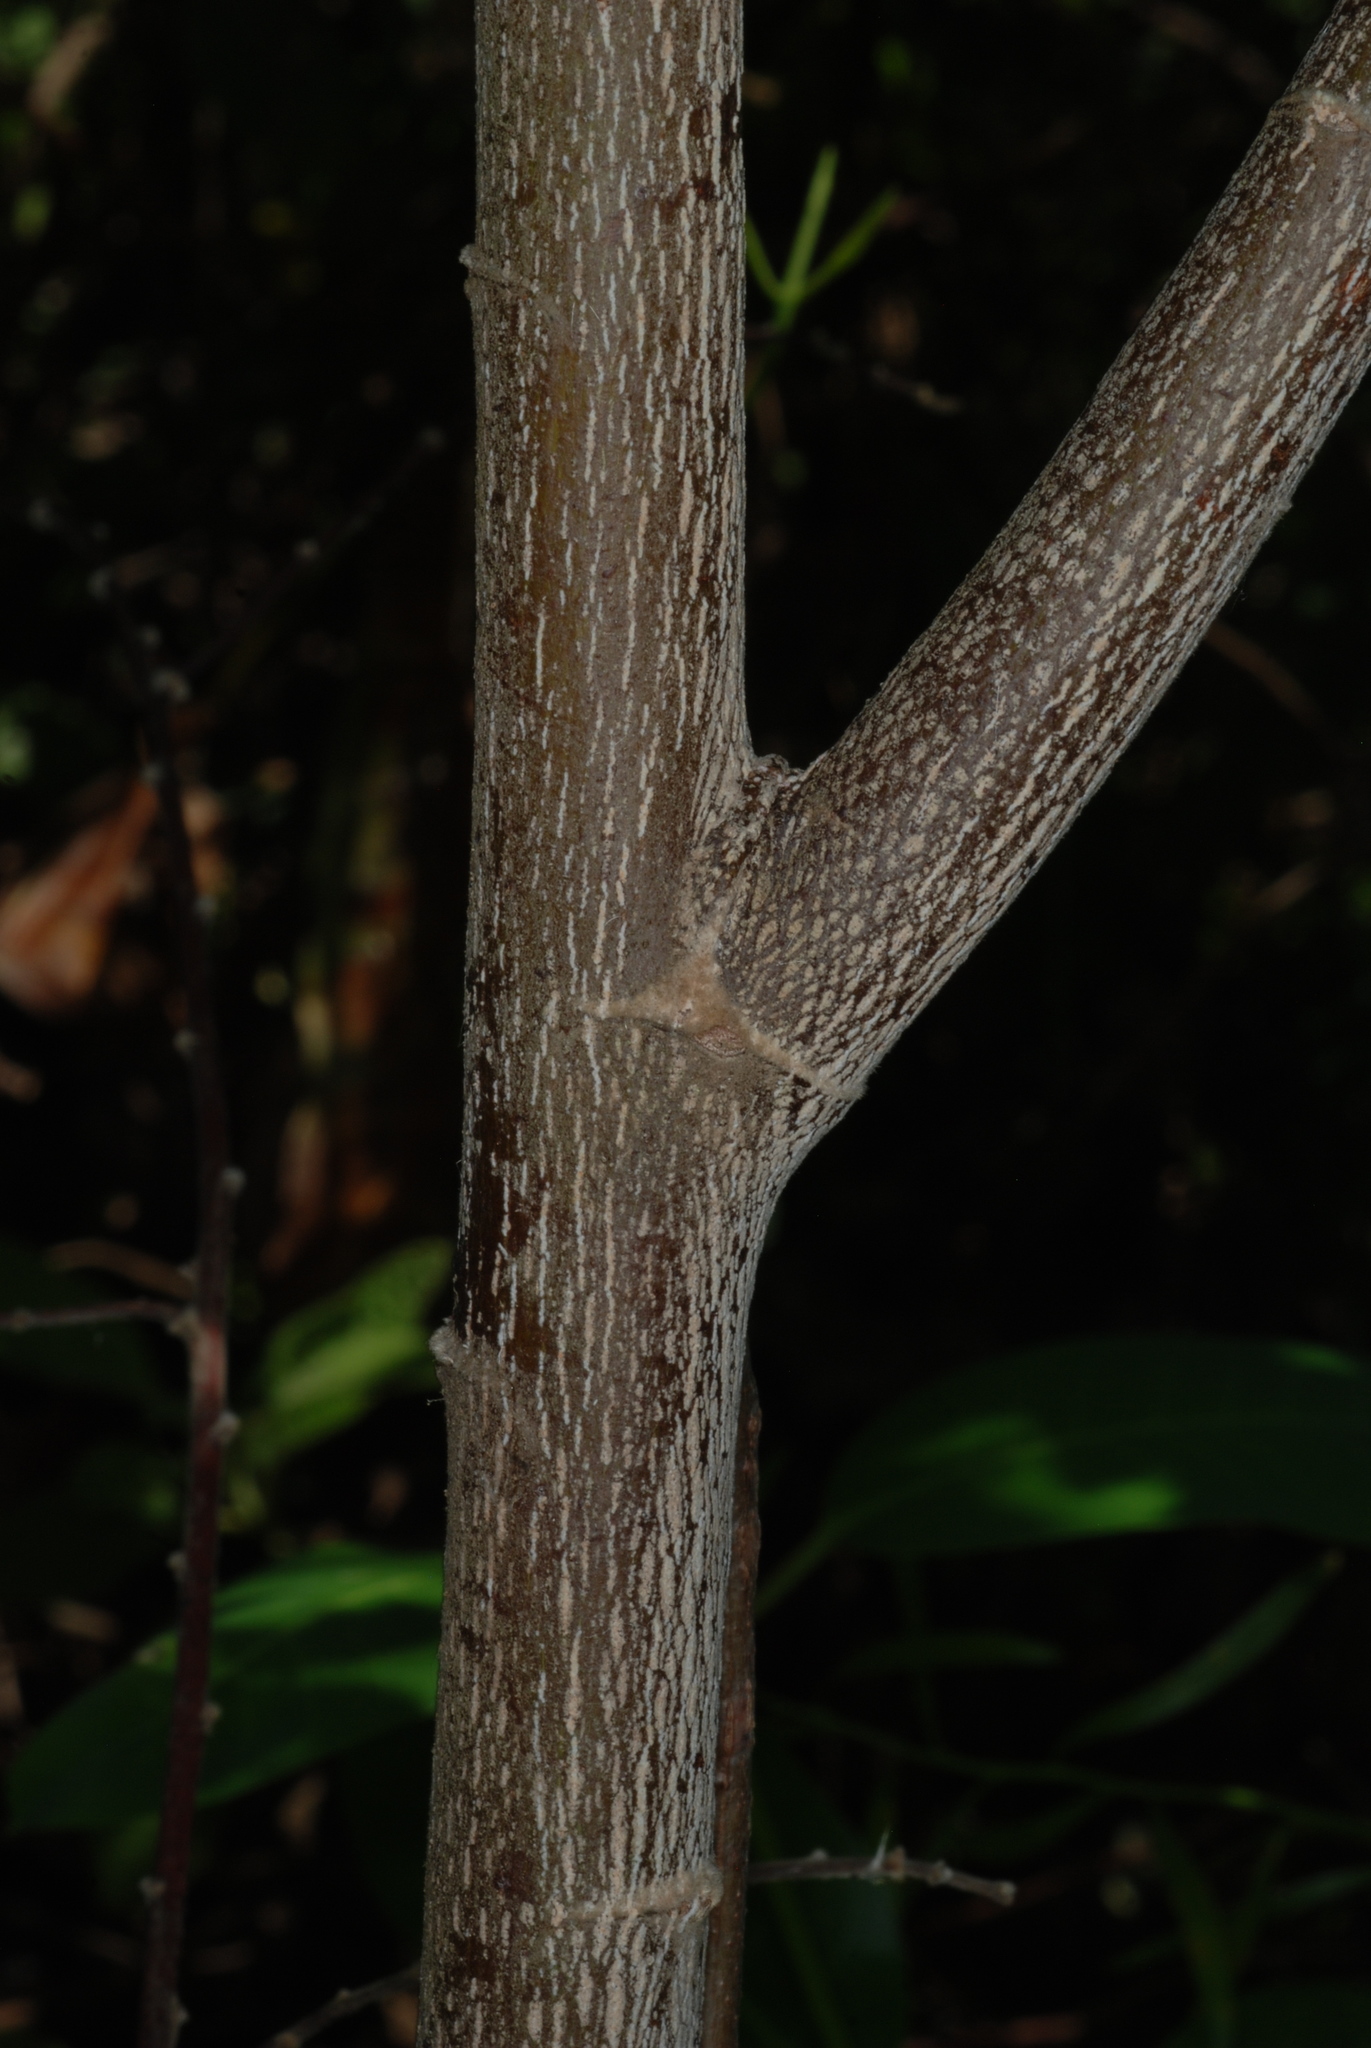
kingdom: Plantae
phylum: Tracheophyta
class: Magnoliopsida
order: Malvales
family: Muntingiaceae
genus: Muntingia
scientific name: Muntingia calabura
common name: Strawberrytree
